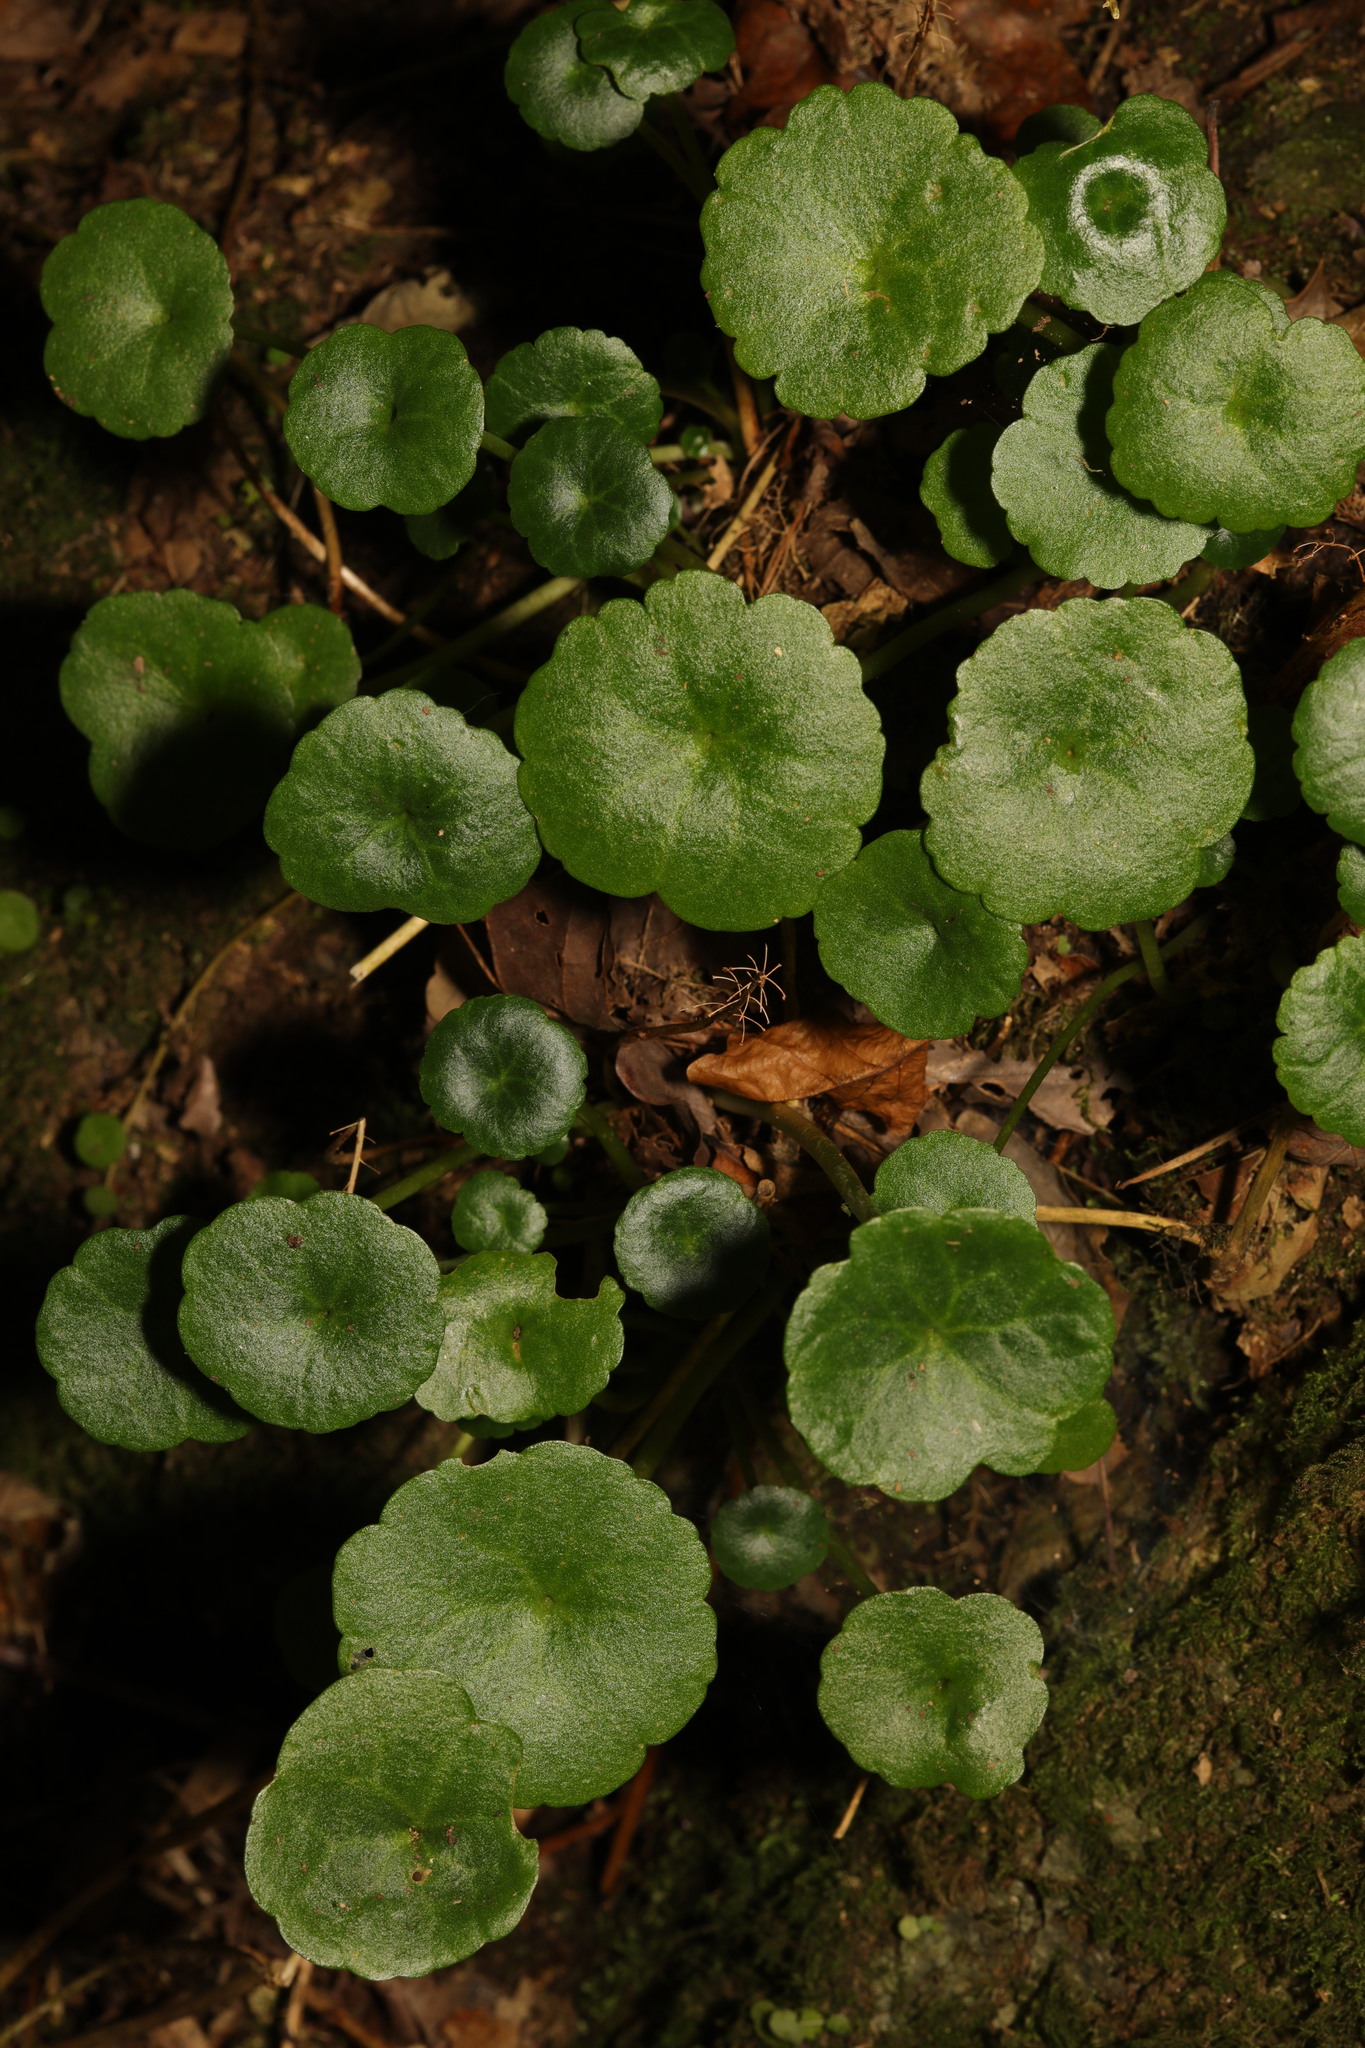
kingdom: Plantae
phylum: Tracheophyta
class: Magnoliopsida
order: Saxifragales
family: Crassulaceae
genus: Umbilicus
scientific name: Umbilicus rupestris
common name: Navelwort
